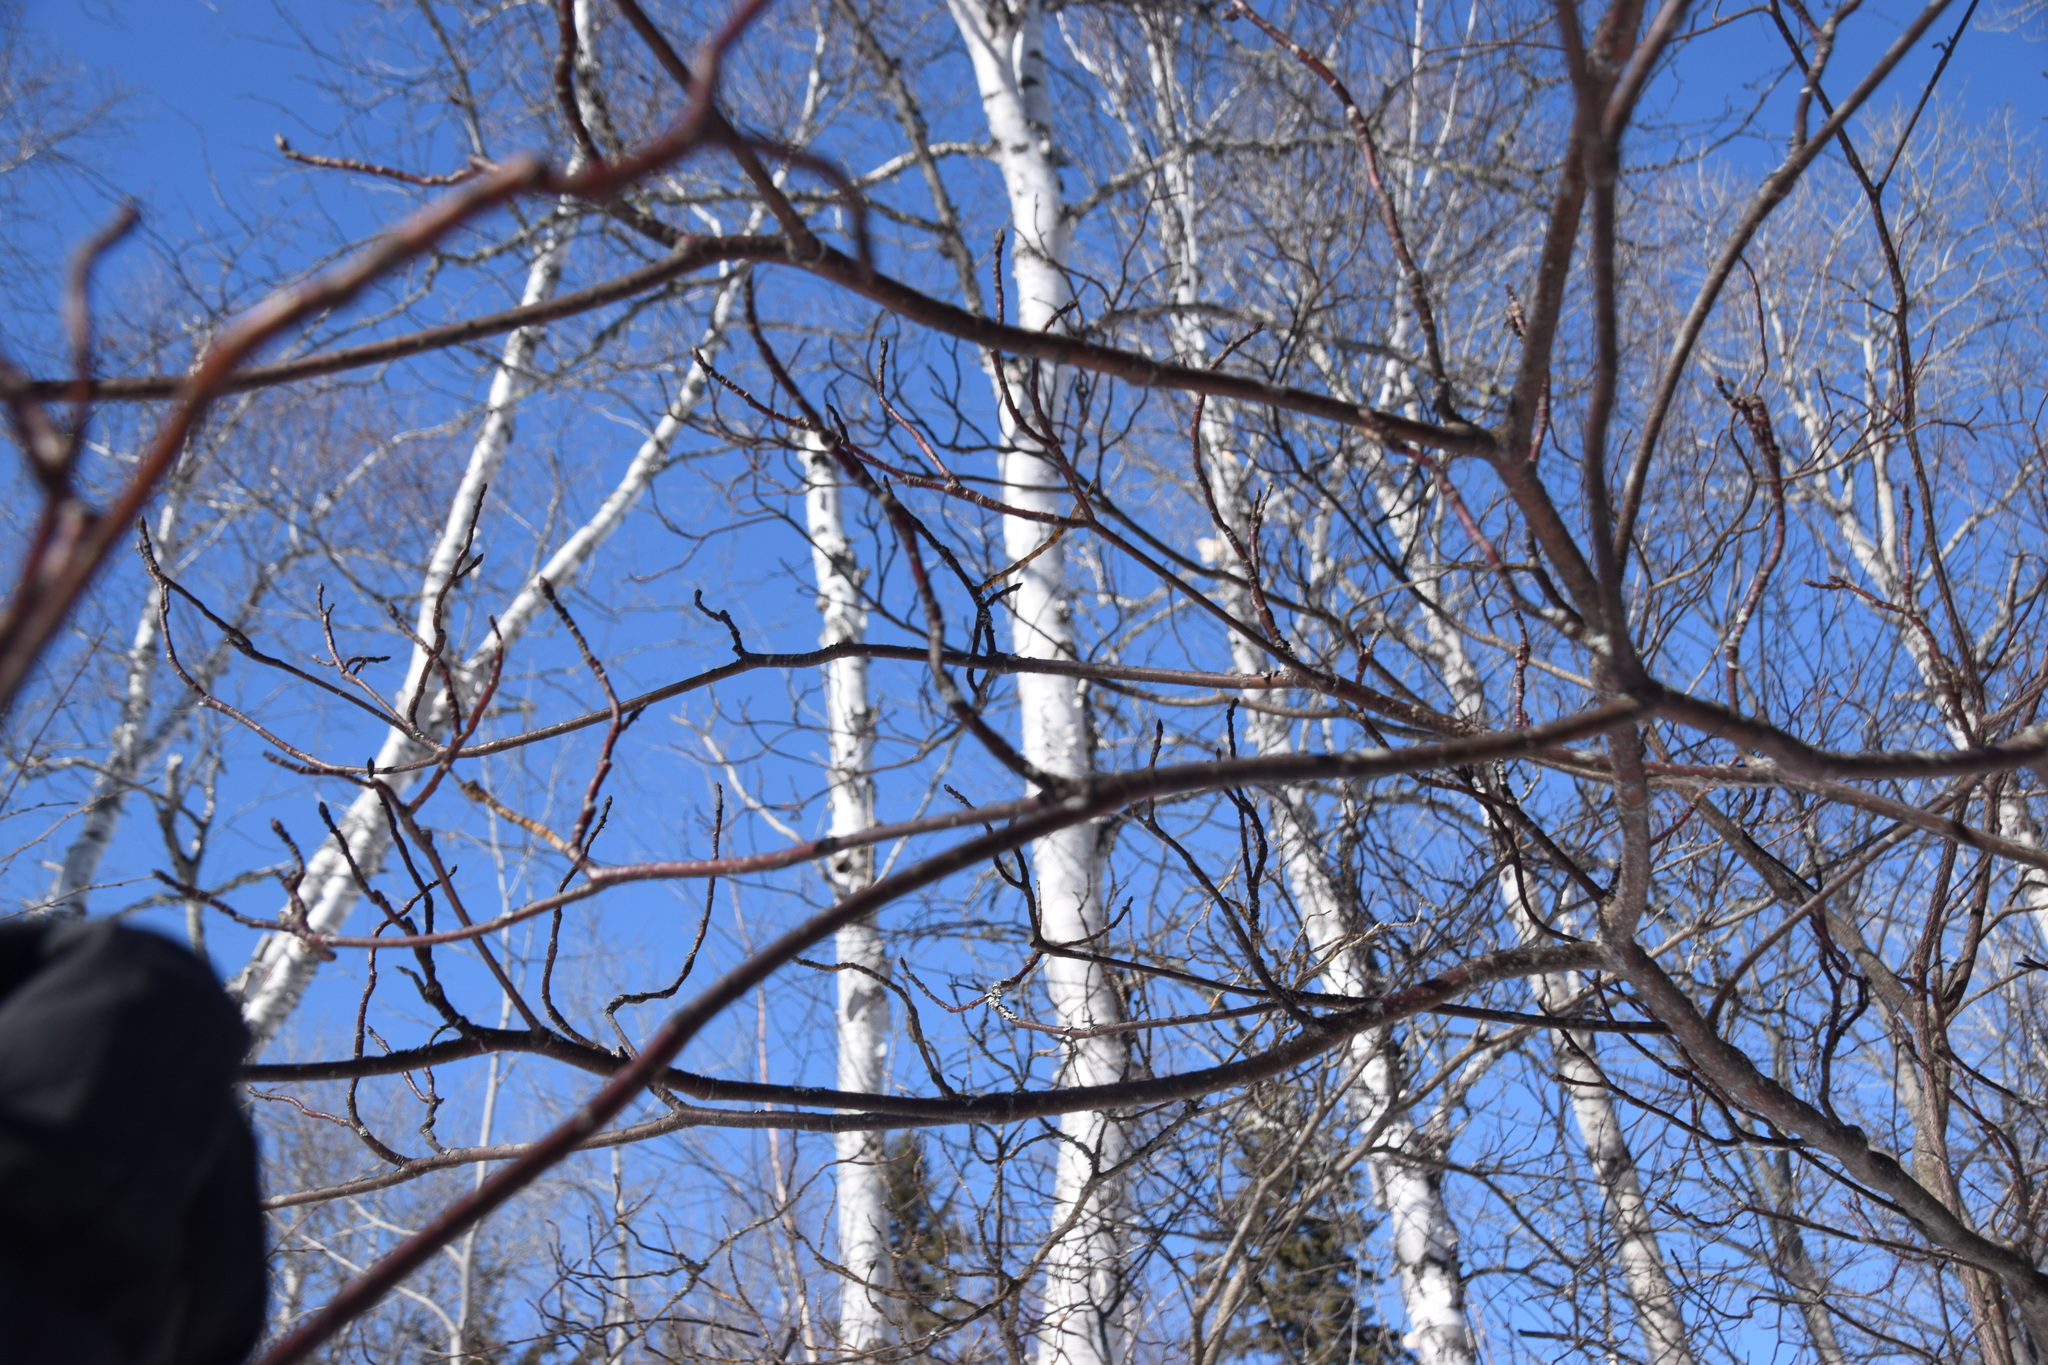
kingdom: Plantae
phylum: Tracheophyta
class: Magnoliopsida
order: Cornales
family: Cornaceae
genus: Cornus
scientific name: Cornus alternifolia
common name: Pagoda dogwood
